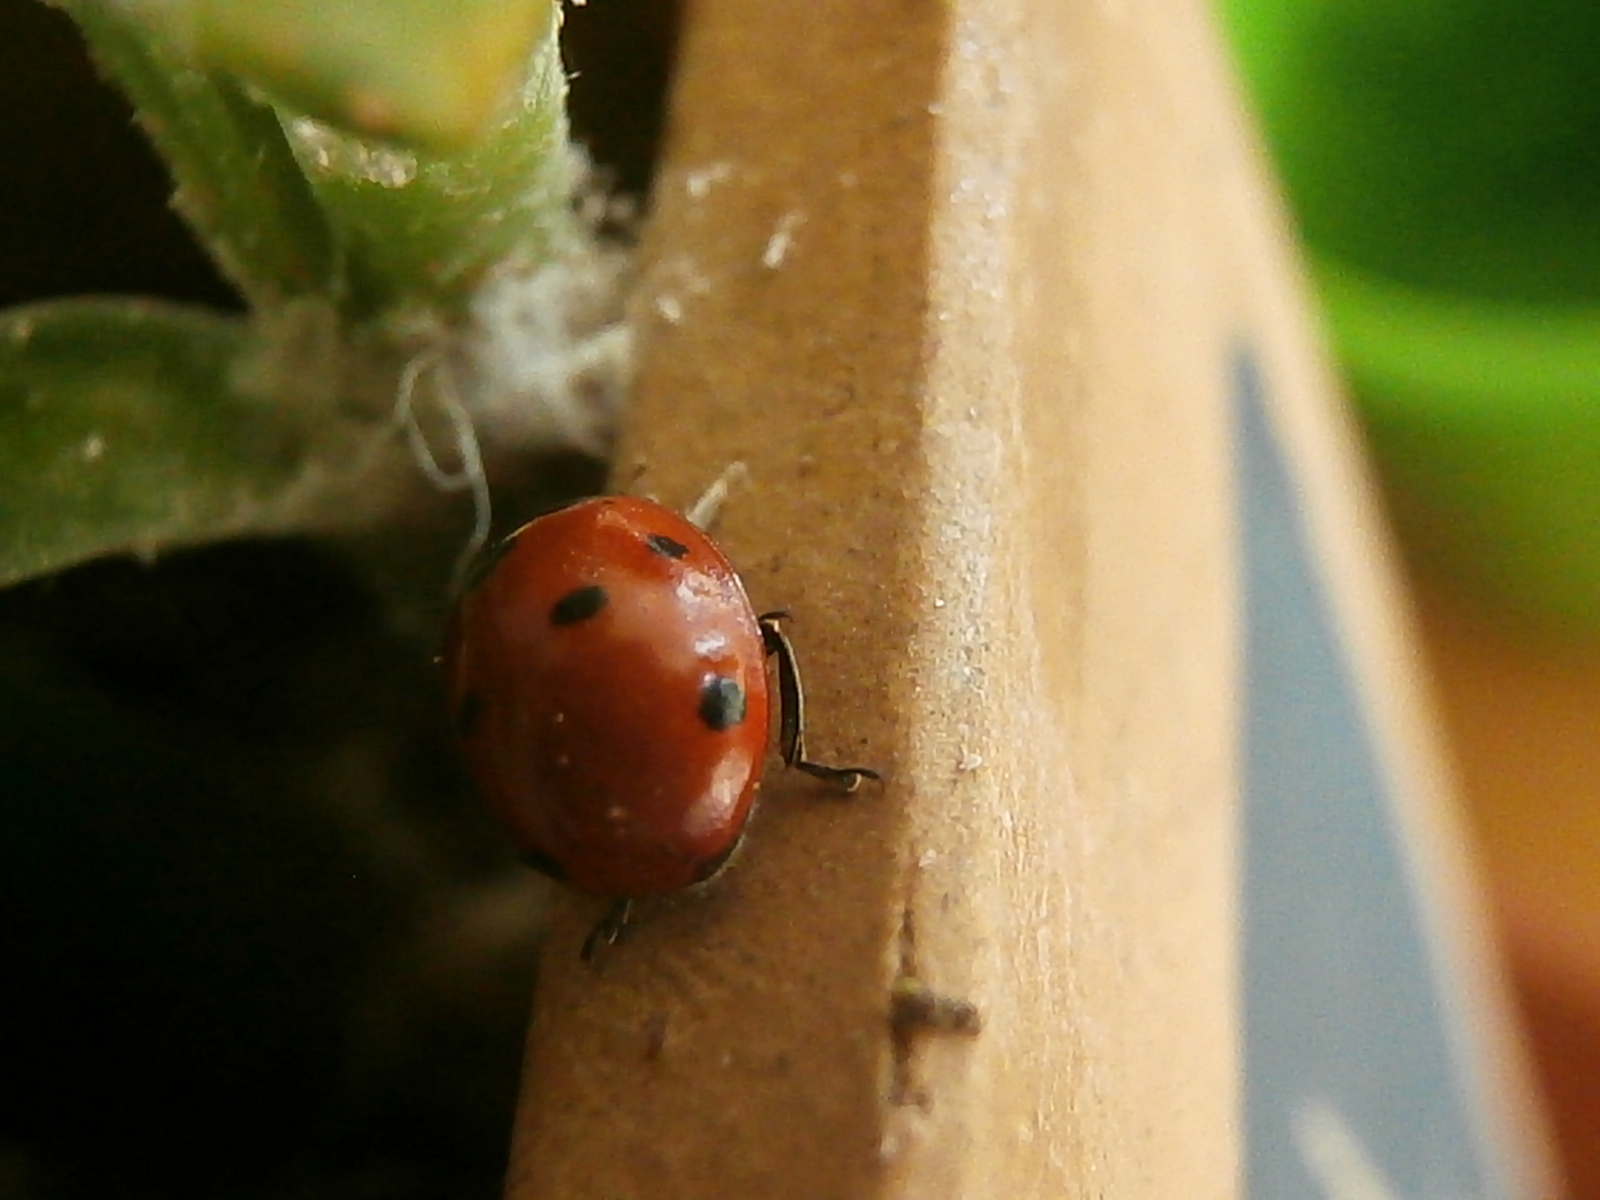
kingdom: Animalia
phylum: Arthropoda
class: Insecta
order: Coleoptera
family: Coccinellidae
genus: Coccinella
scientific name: Coccinella septempunctata
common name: Sevenspotted lady beetle
